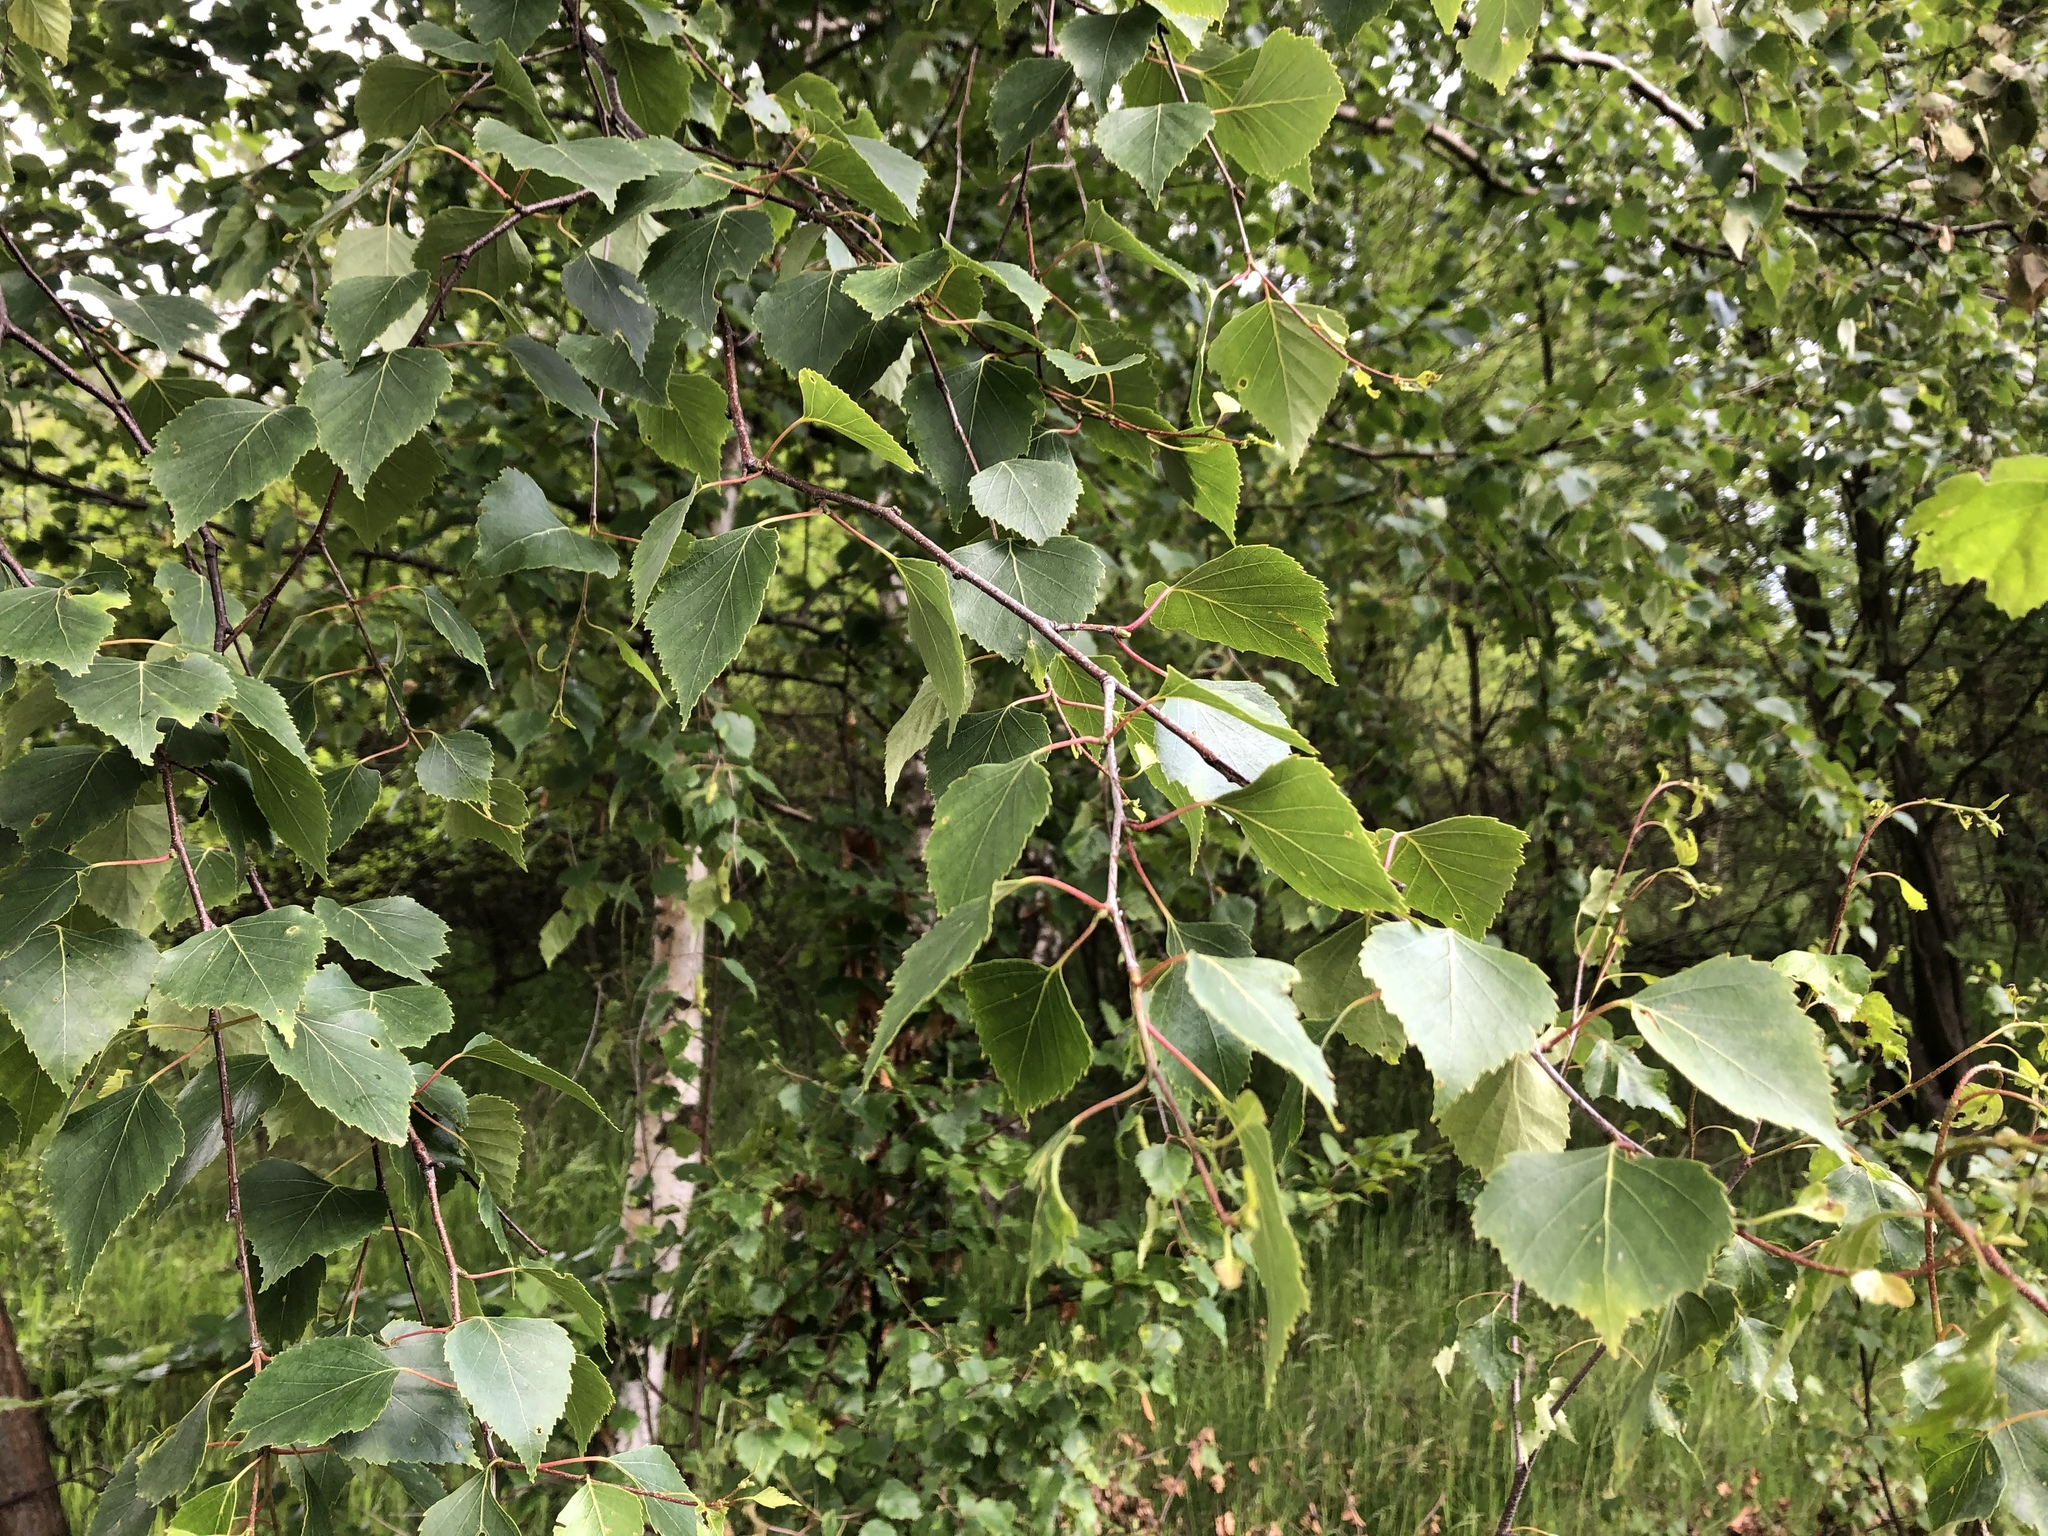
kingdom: Plantae
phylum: Tracheophyta
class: Magnoliopsida
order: Fagales
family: Betulaceae
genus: Betula
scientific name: Betula pendula
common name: Silver birch
